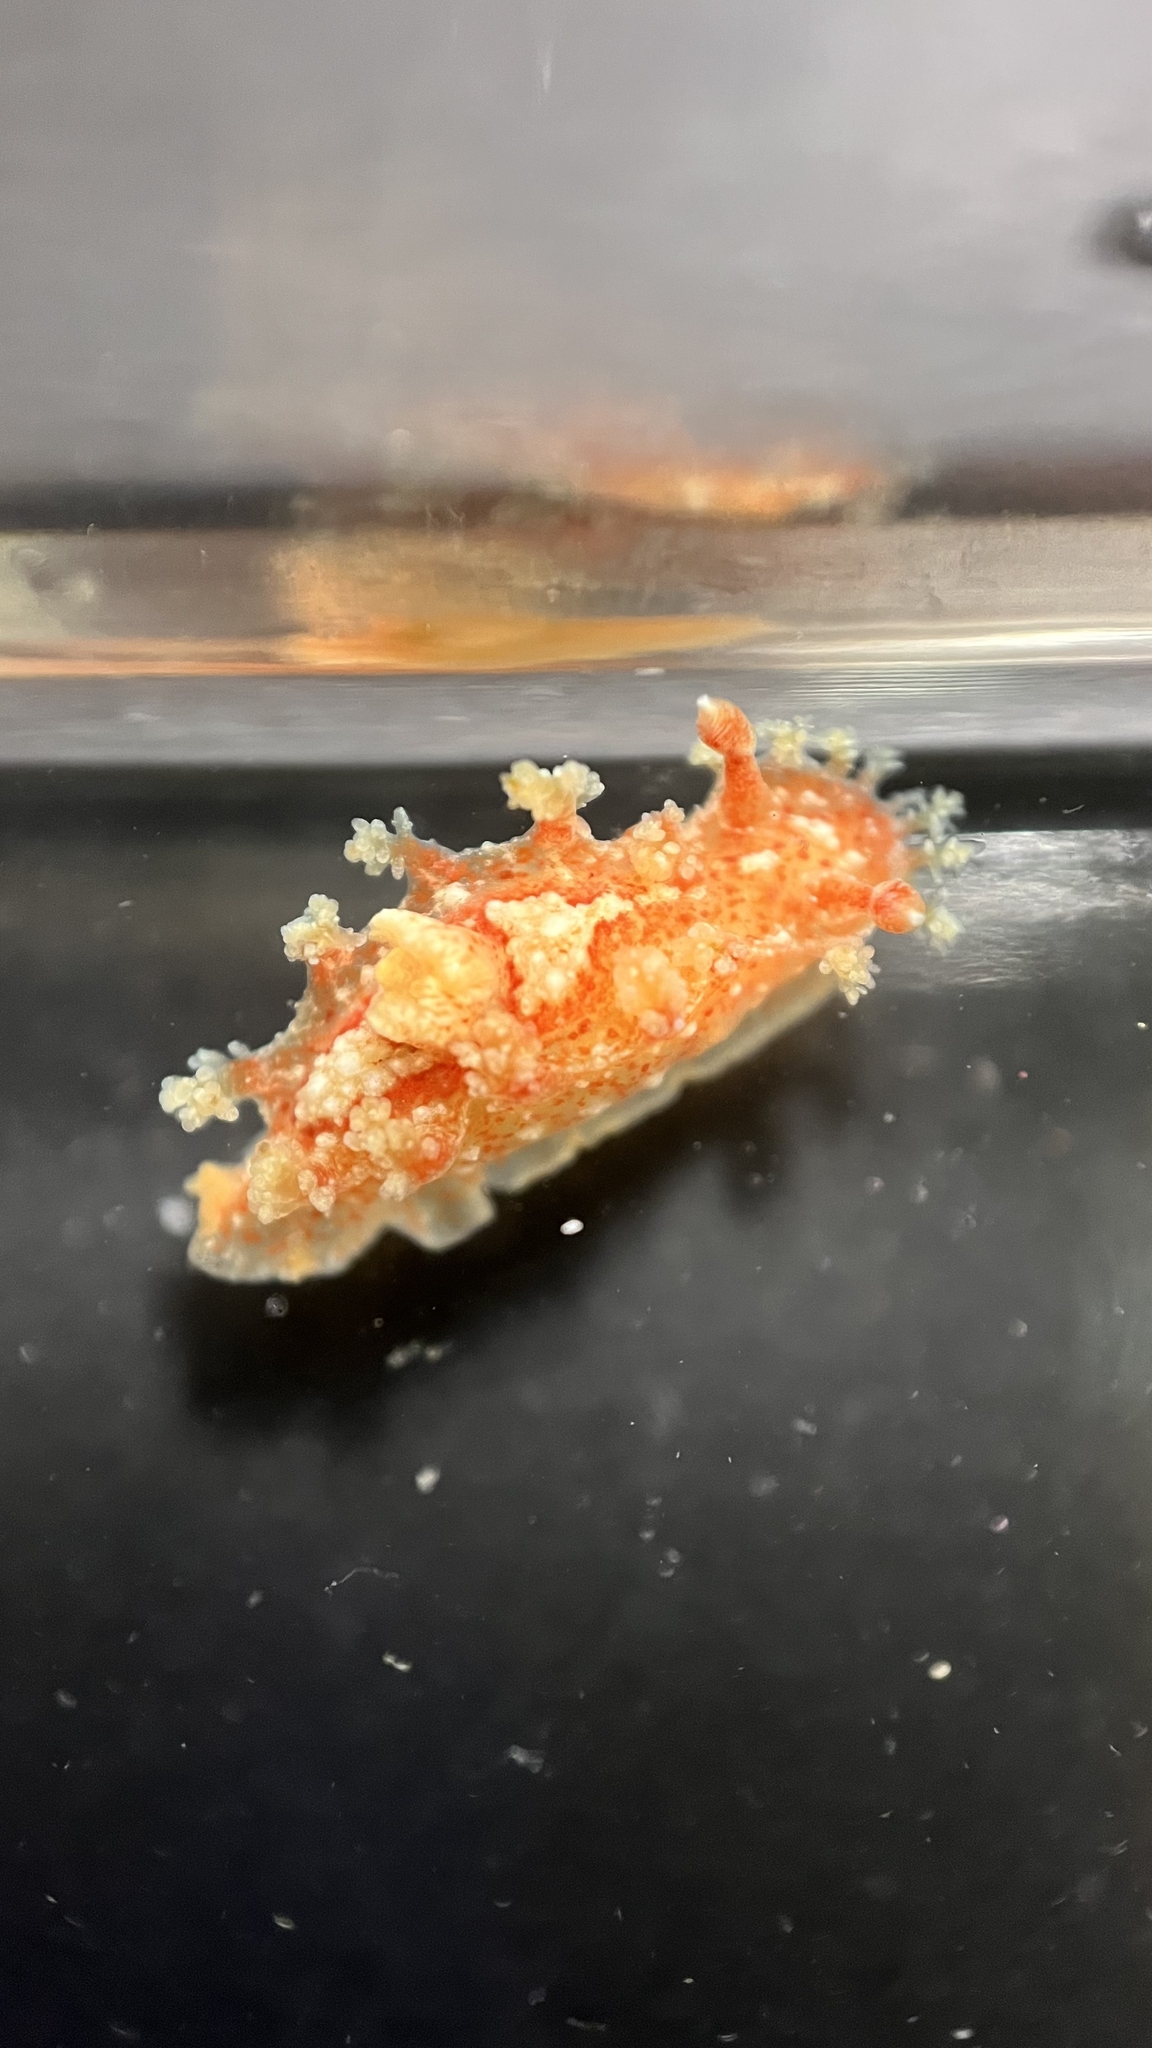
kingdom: Animalia
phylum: Mollusca
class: Gastropoda
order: Nudibranchia
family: Polyceridae
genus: Kaloplocamus
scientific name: Kaloplocamus ramosus
